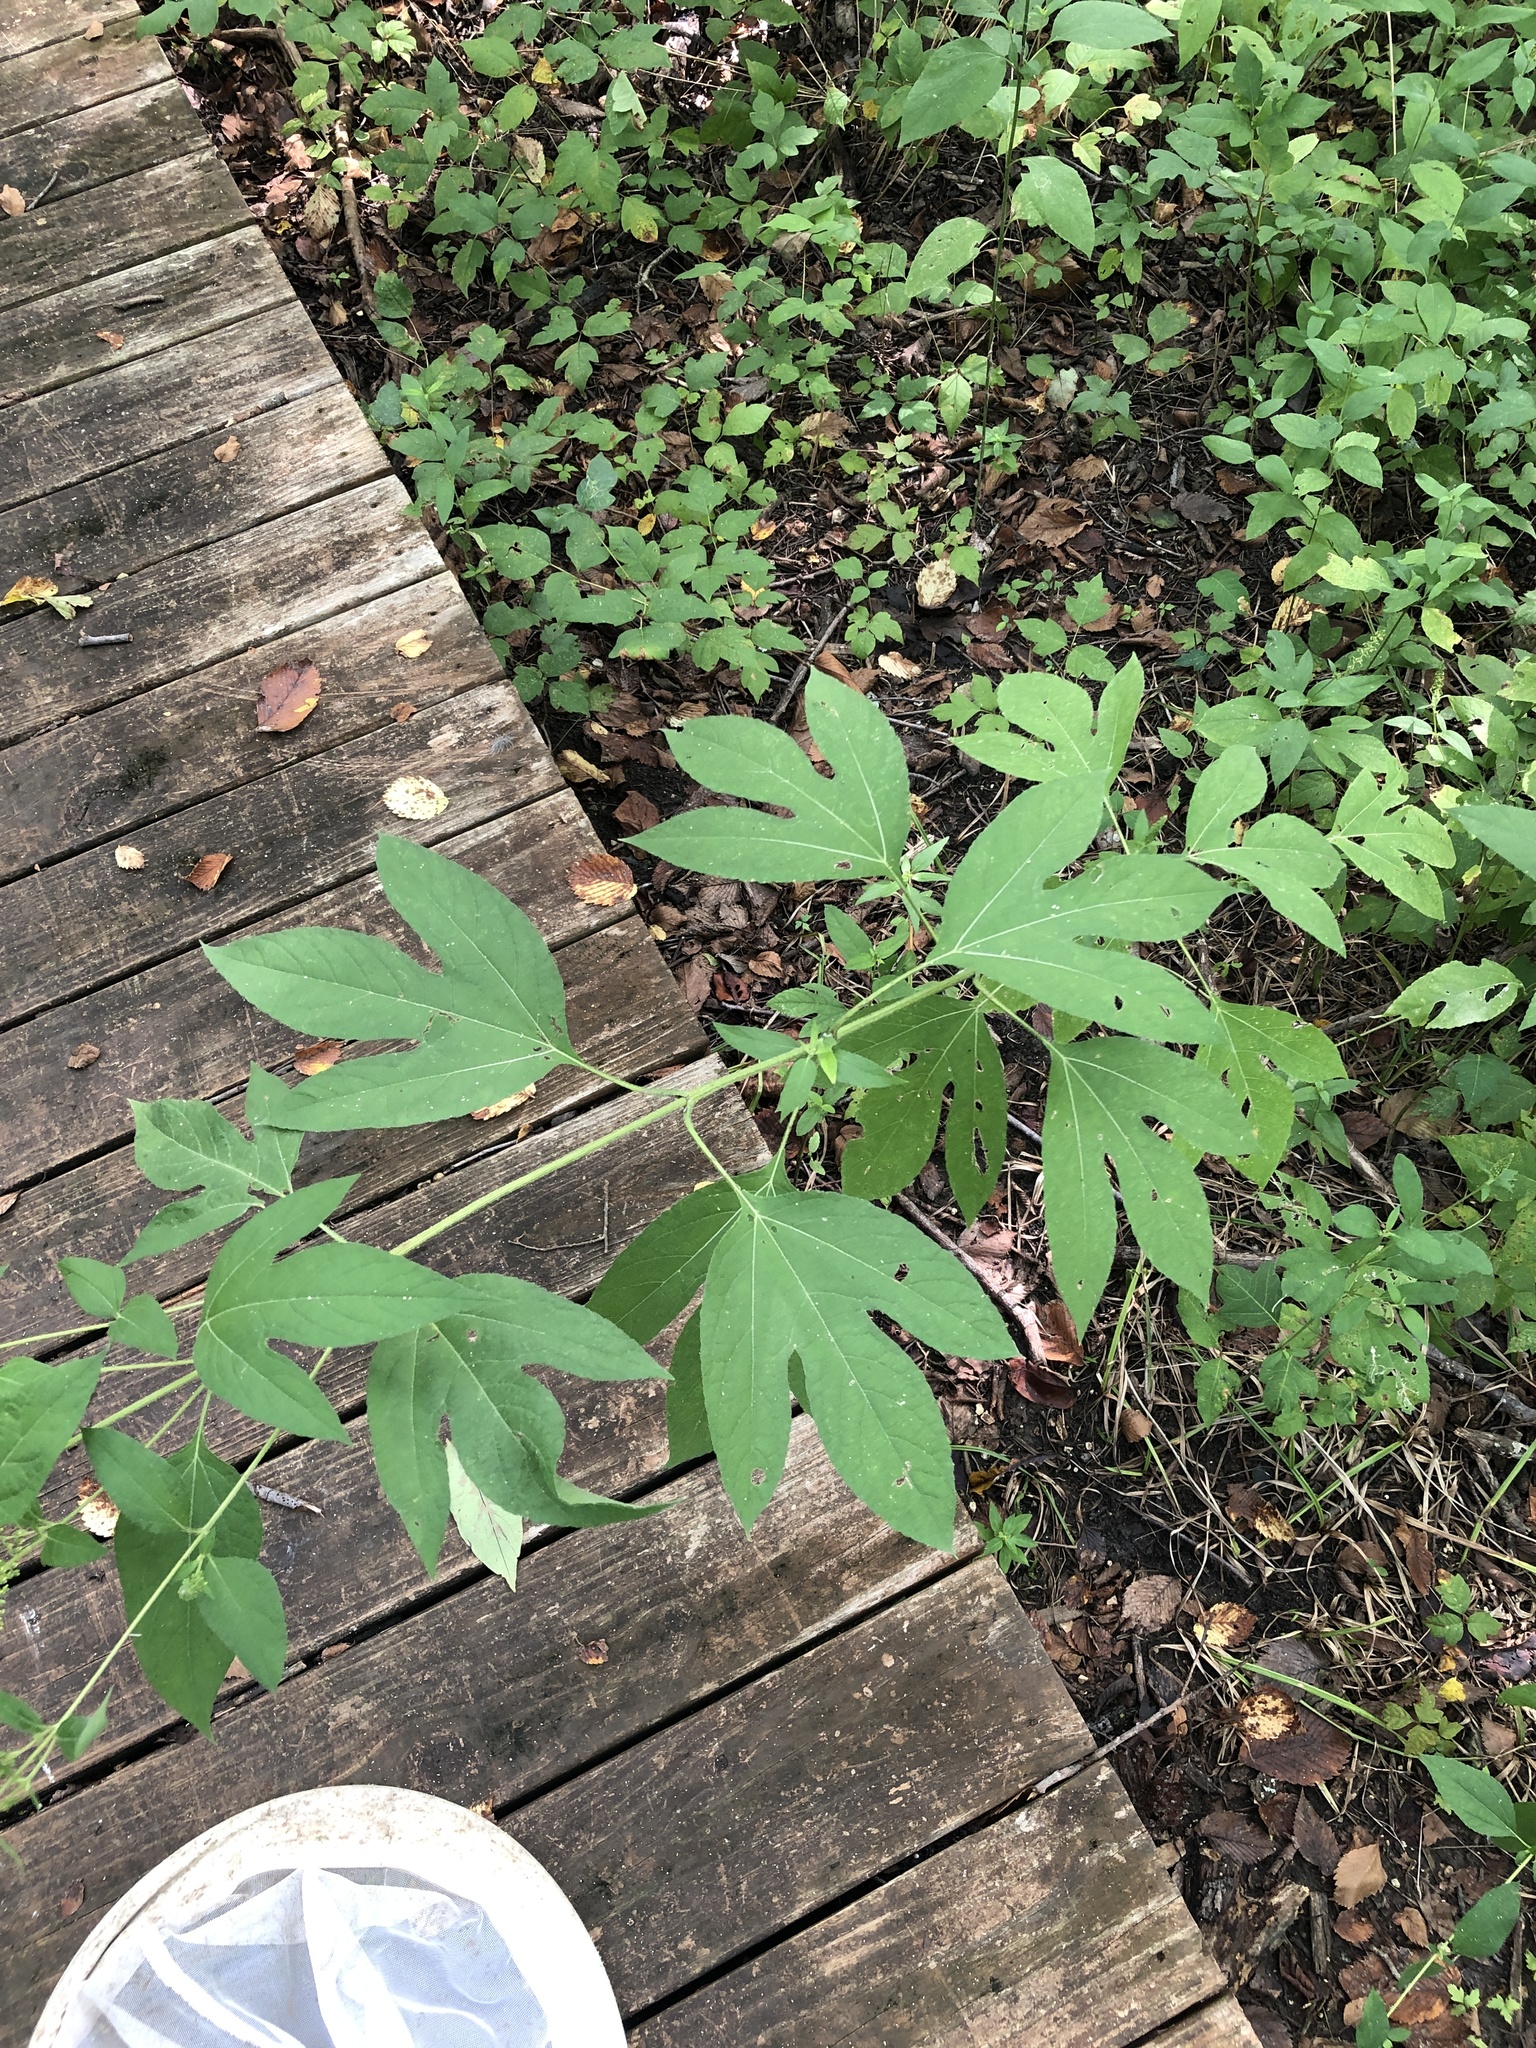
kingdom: Plantae
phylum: Tracheophyta
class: Magnoliopsida
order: Asterales
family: Asteraceae
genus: Ambrosia
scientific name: Ambrosia trifida
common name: Giant ragweed
